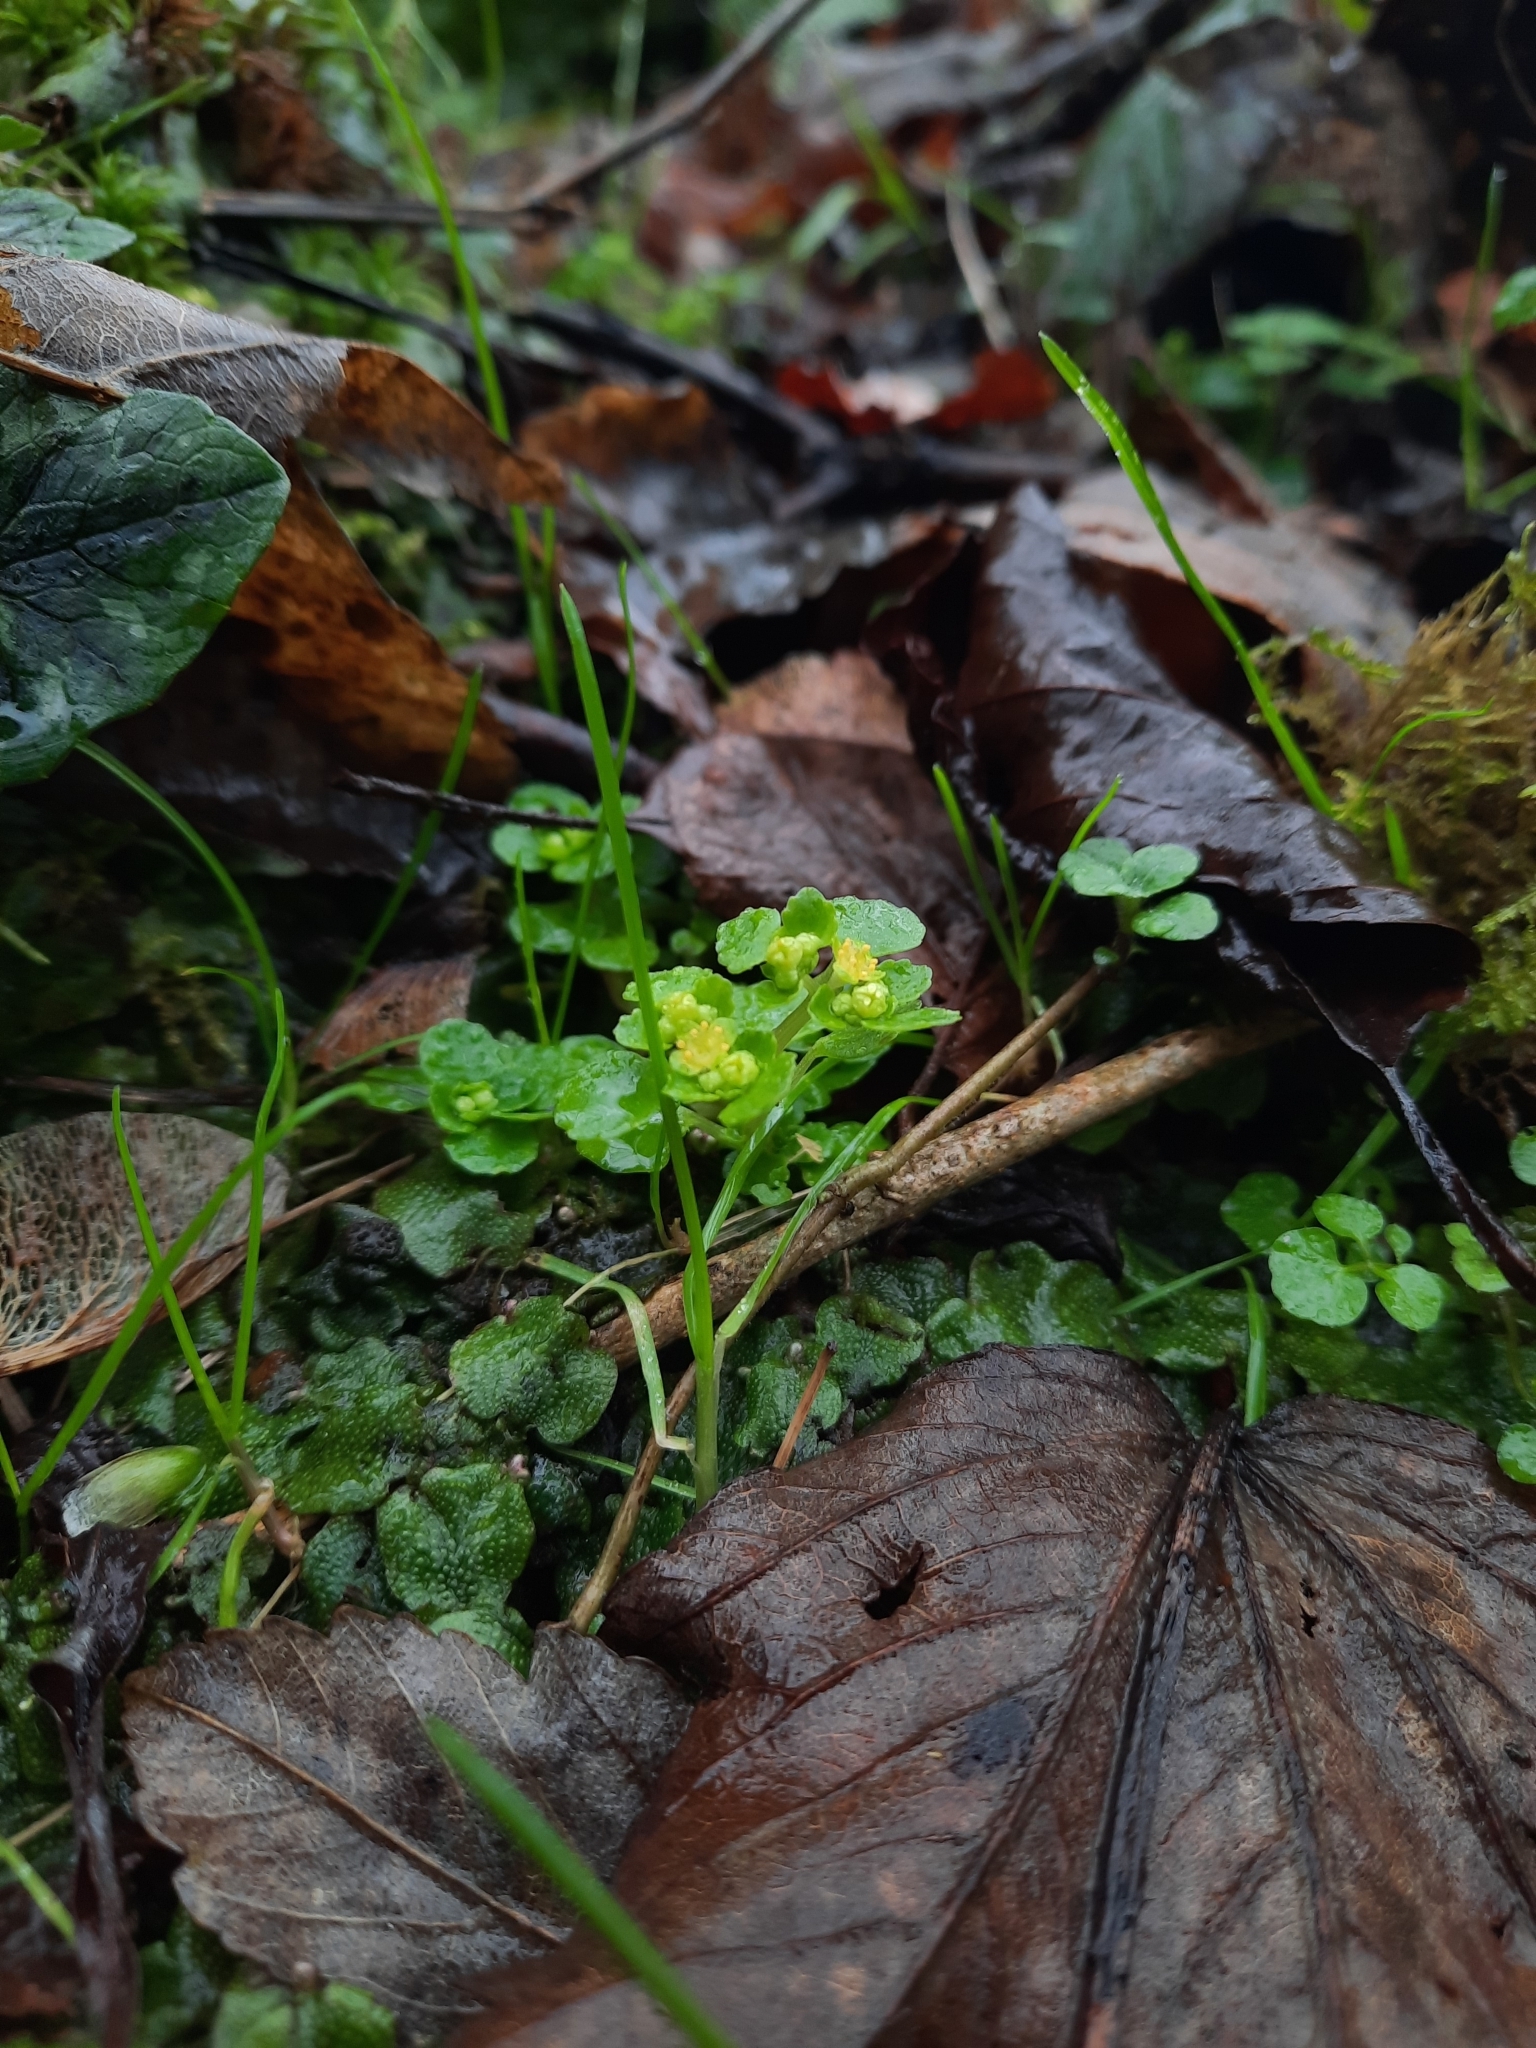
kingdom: Plantae
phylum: Tracheophyta
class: Magnoliopsida
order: Saxifragales
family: Saxifragaceae
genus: Chrysosplenium
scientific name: Chrysosplenium oppositifolium
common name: Opposite-leaved golden-saxifrage
